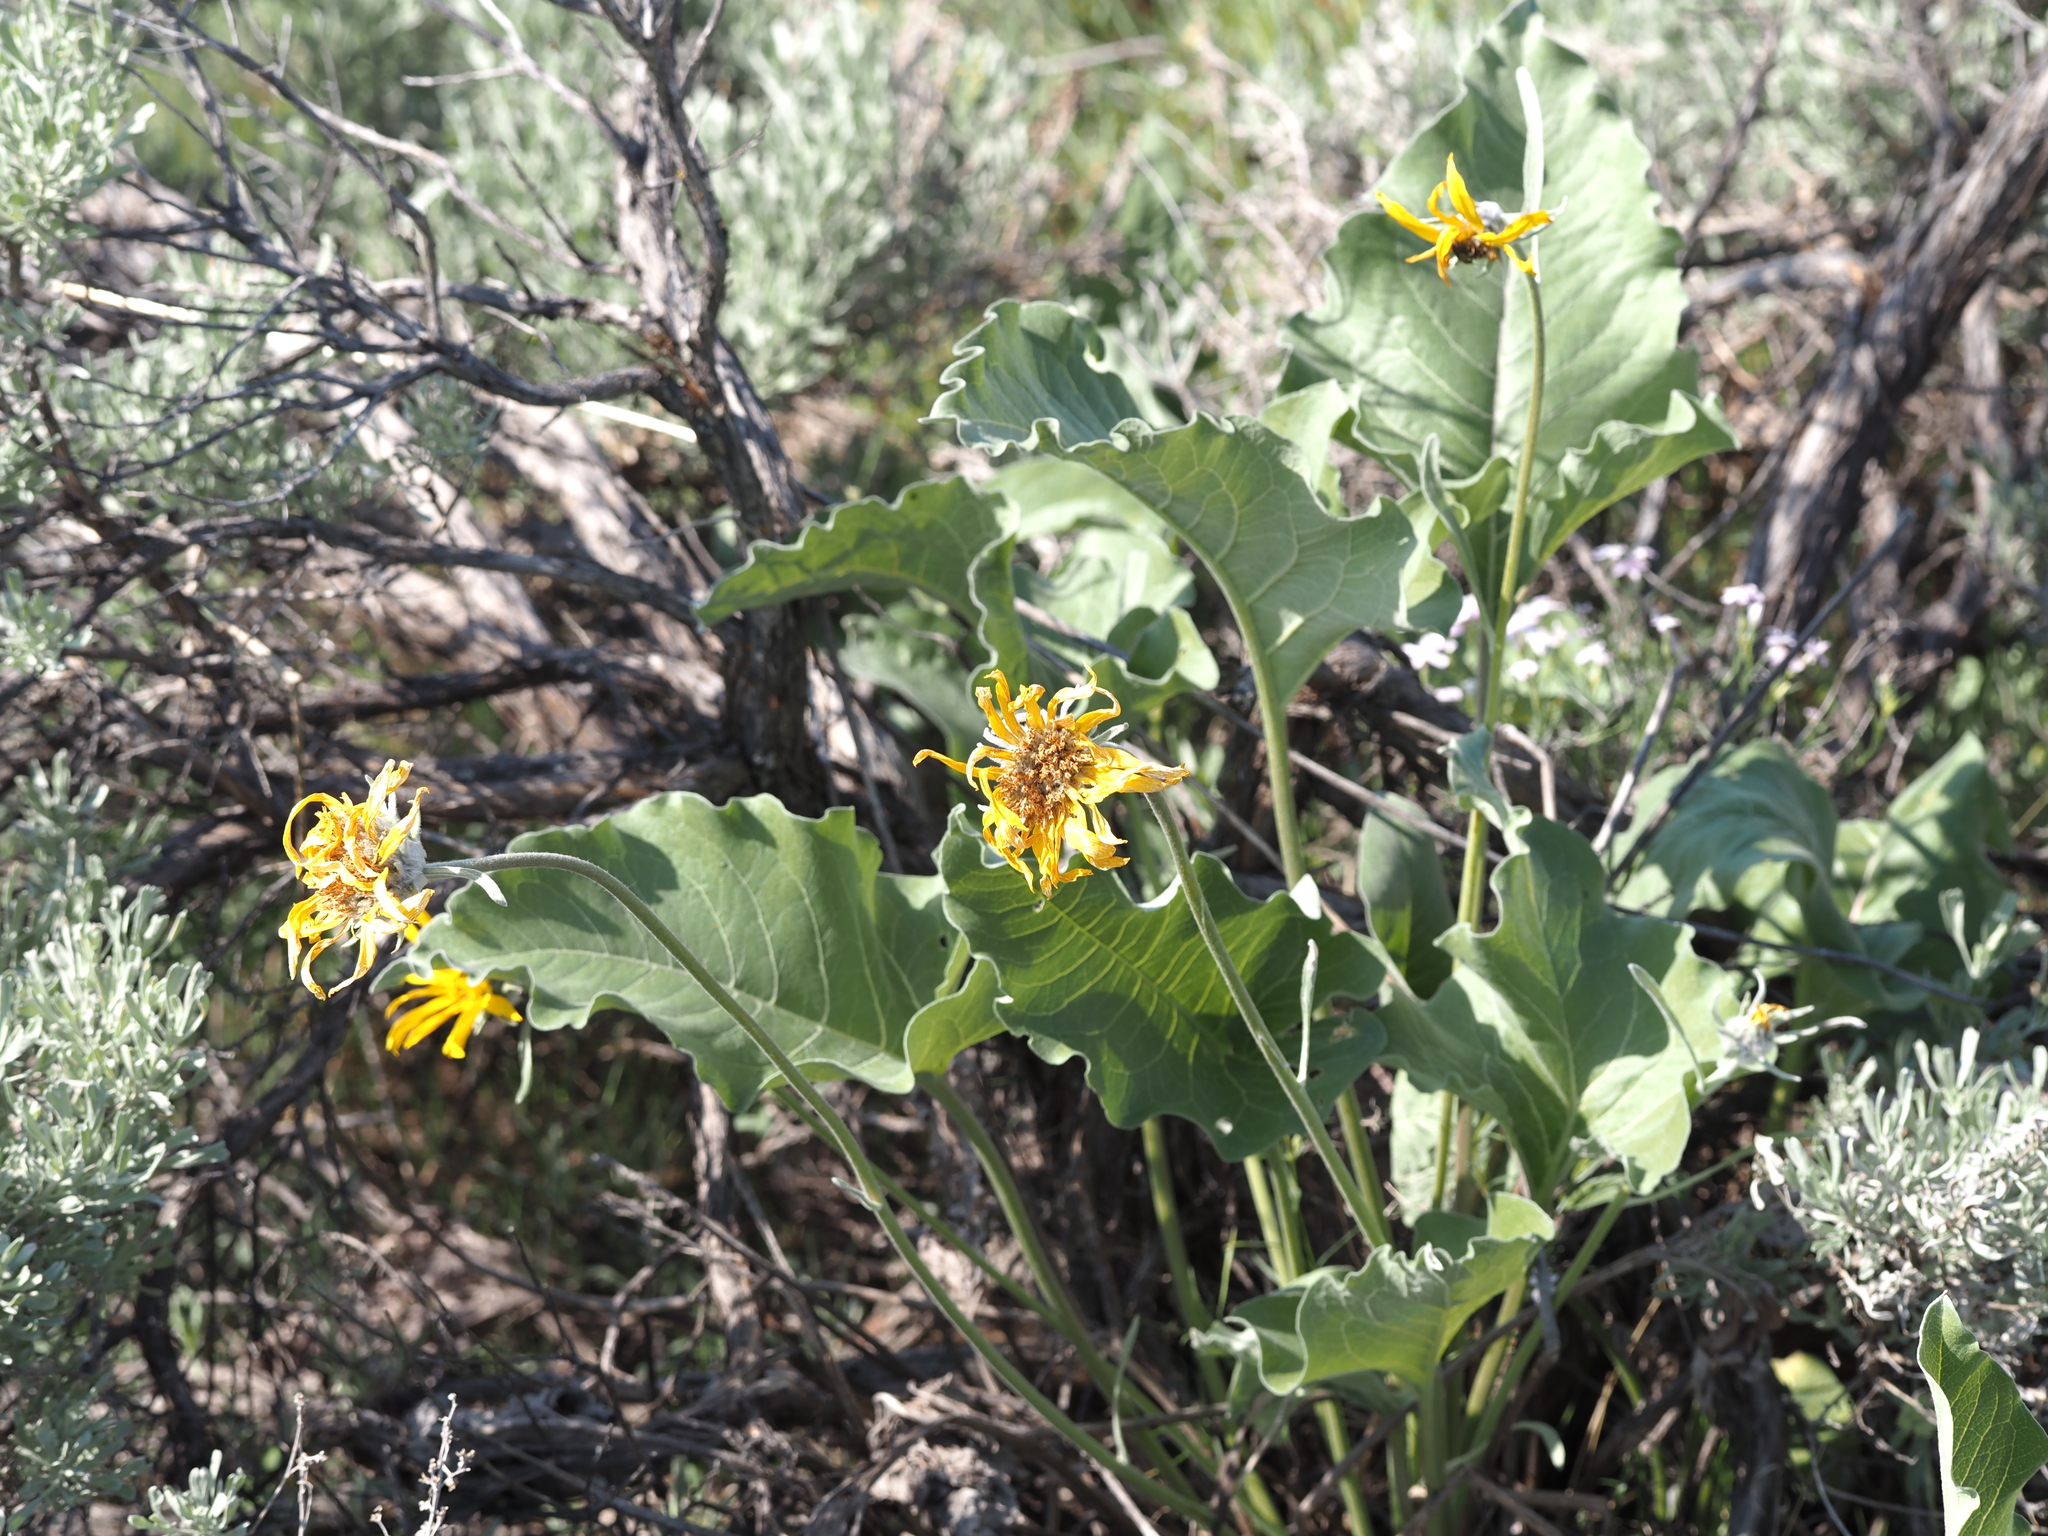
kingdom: Plantae
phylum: Tracheophyta
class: Magnoliopsida
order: Asterales
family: Asteraceae
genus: Wyethia
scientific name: Wyethia sagittata
